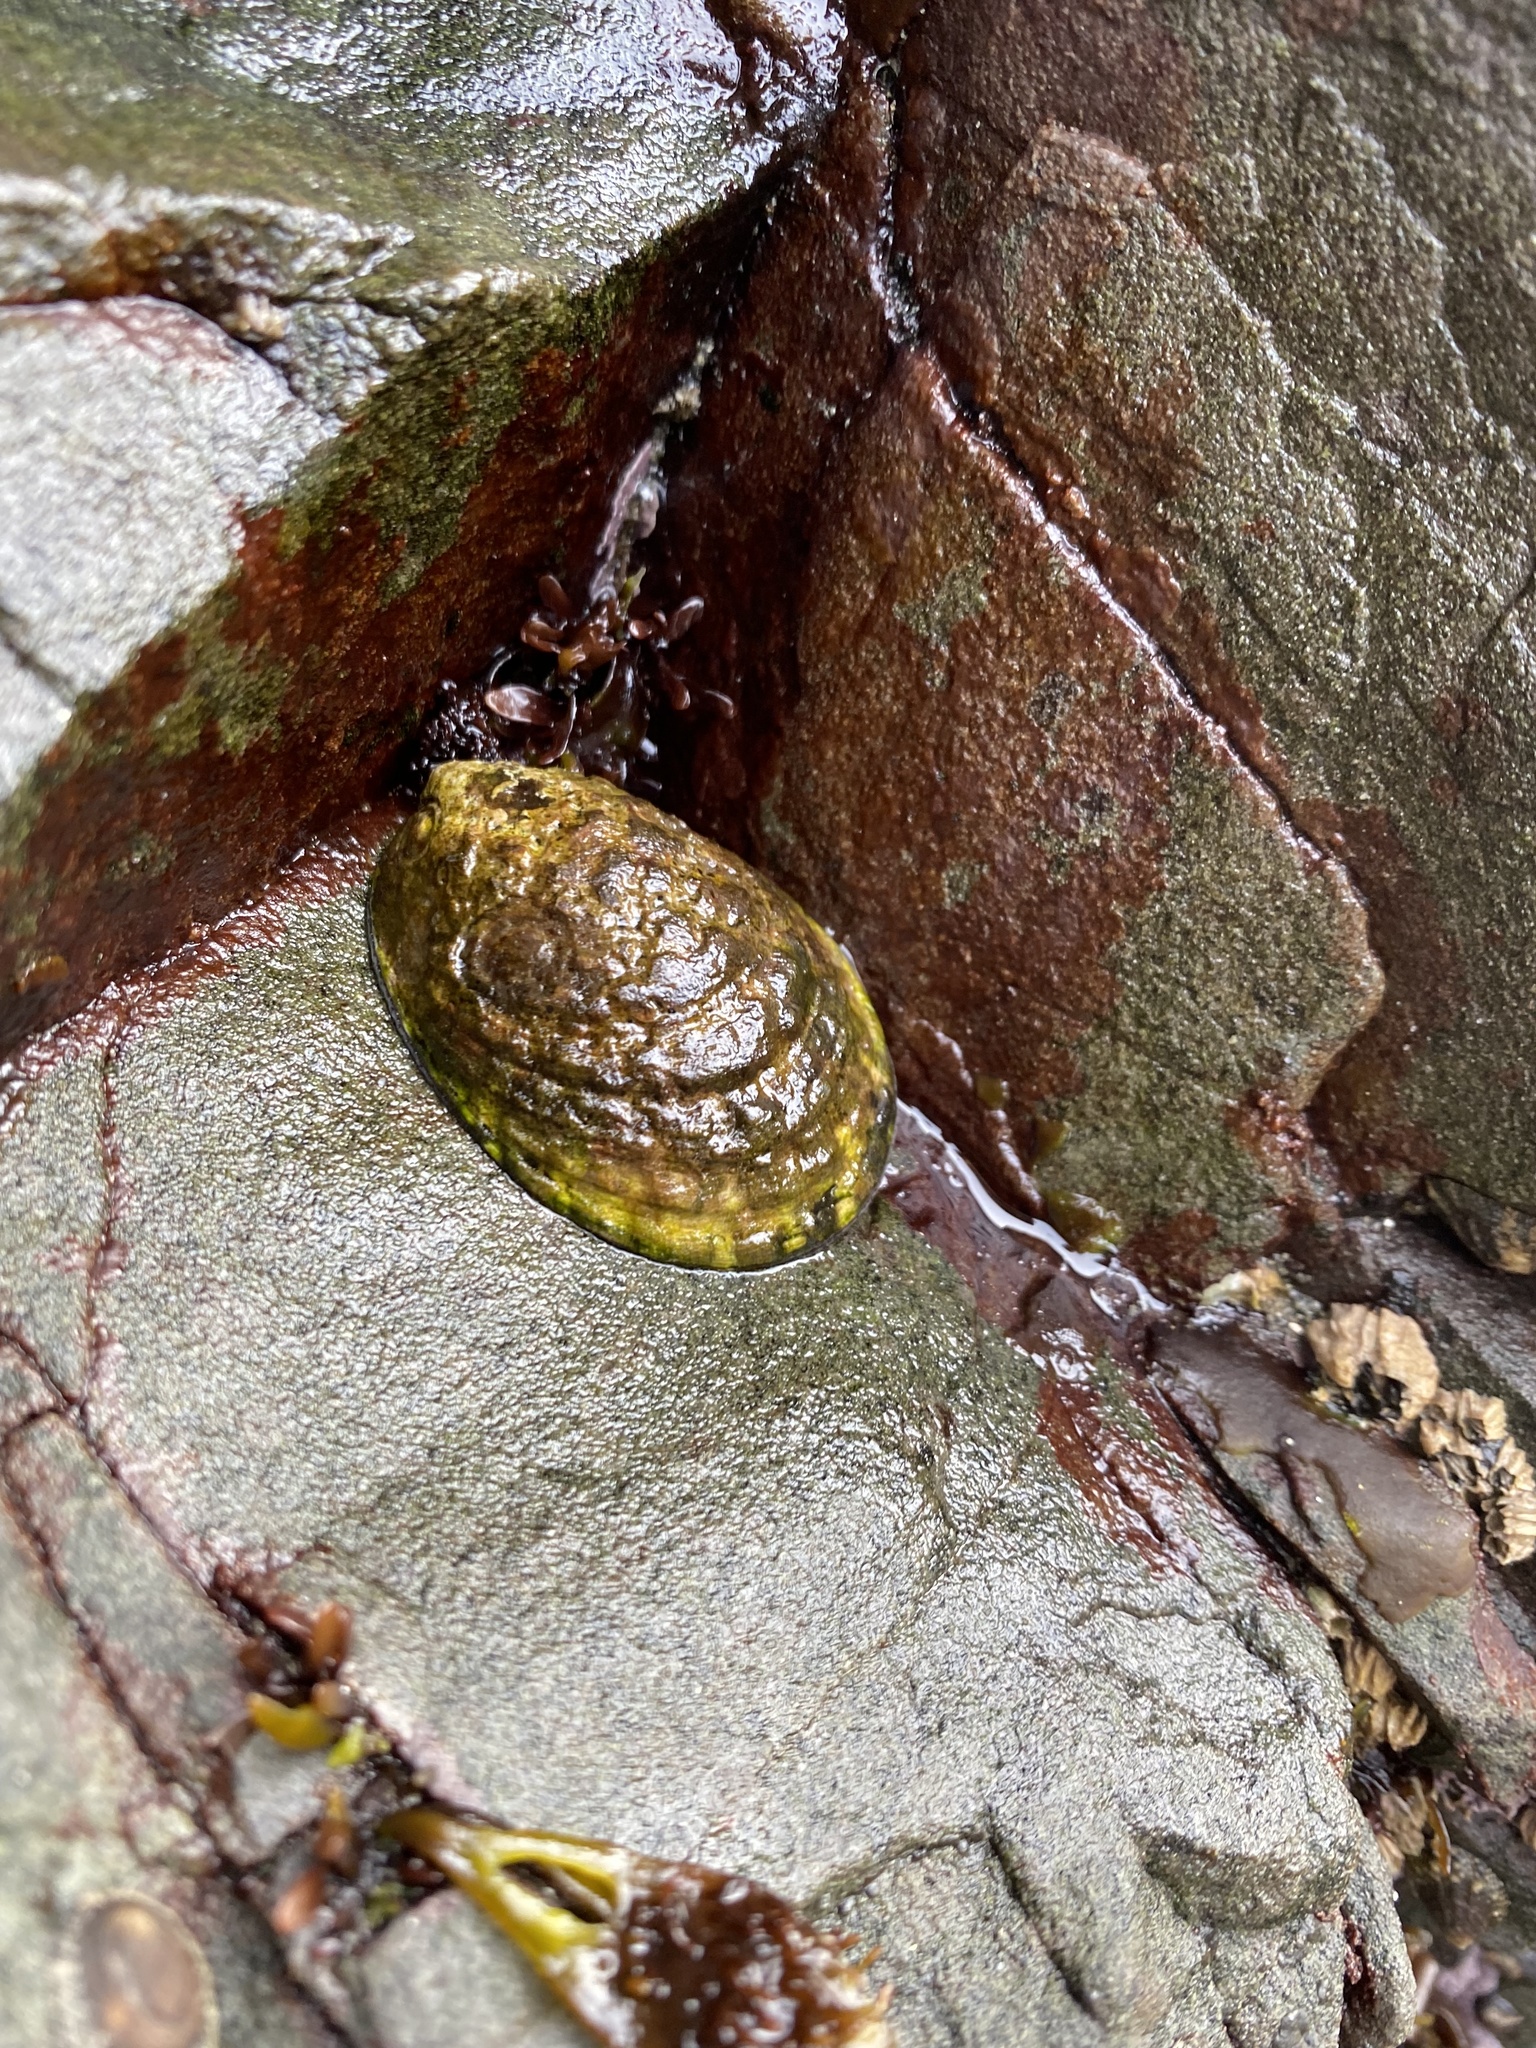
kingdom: Animalia
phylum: Mollusca
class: Gastropoda
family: Lottiidae
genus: Lottia
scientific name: Lottia gigantea
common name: Owl limpet
